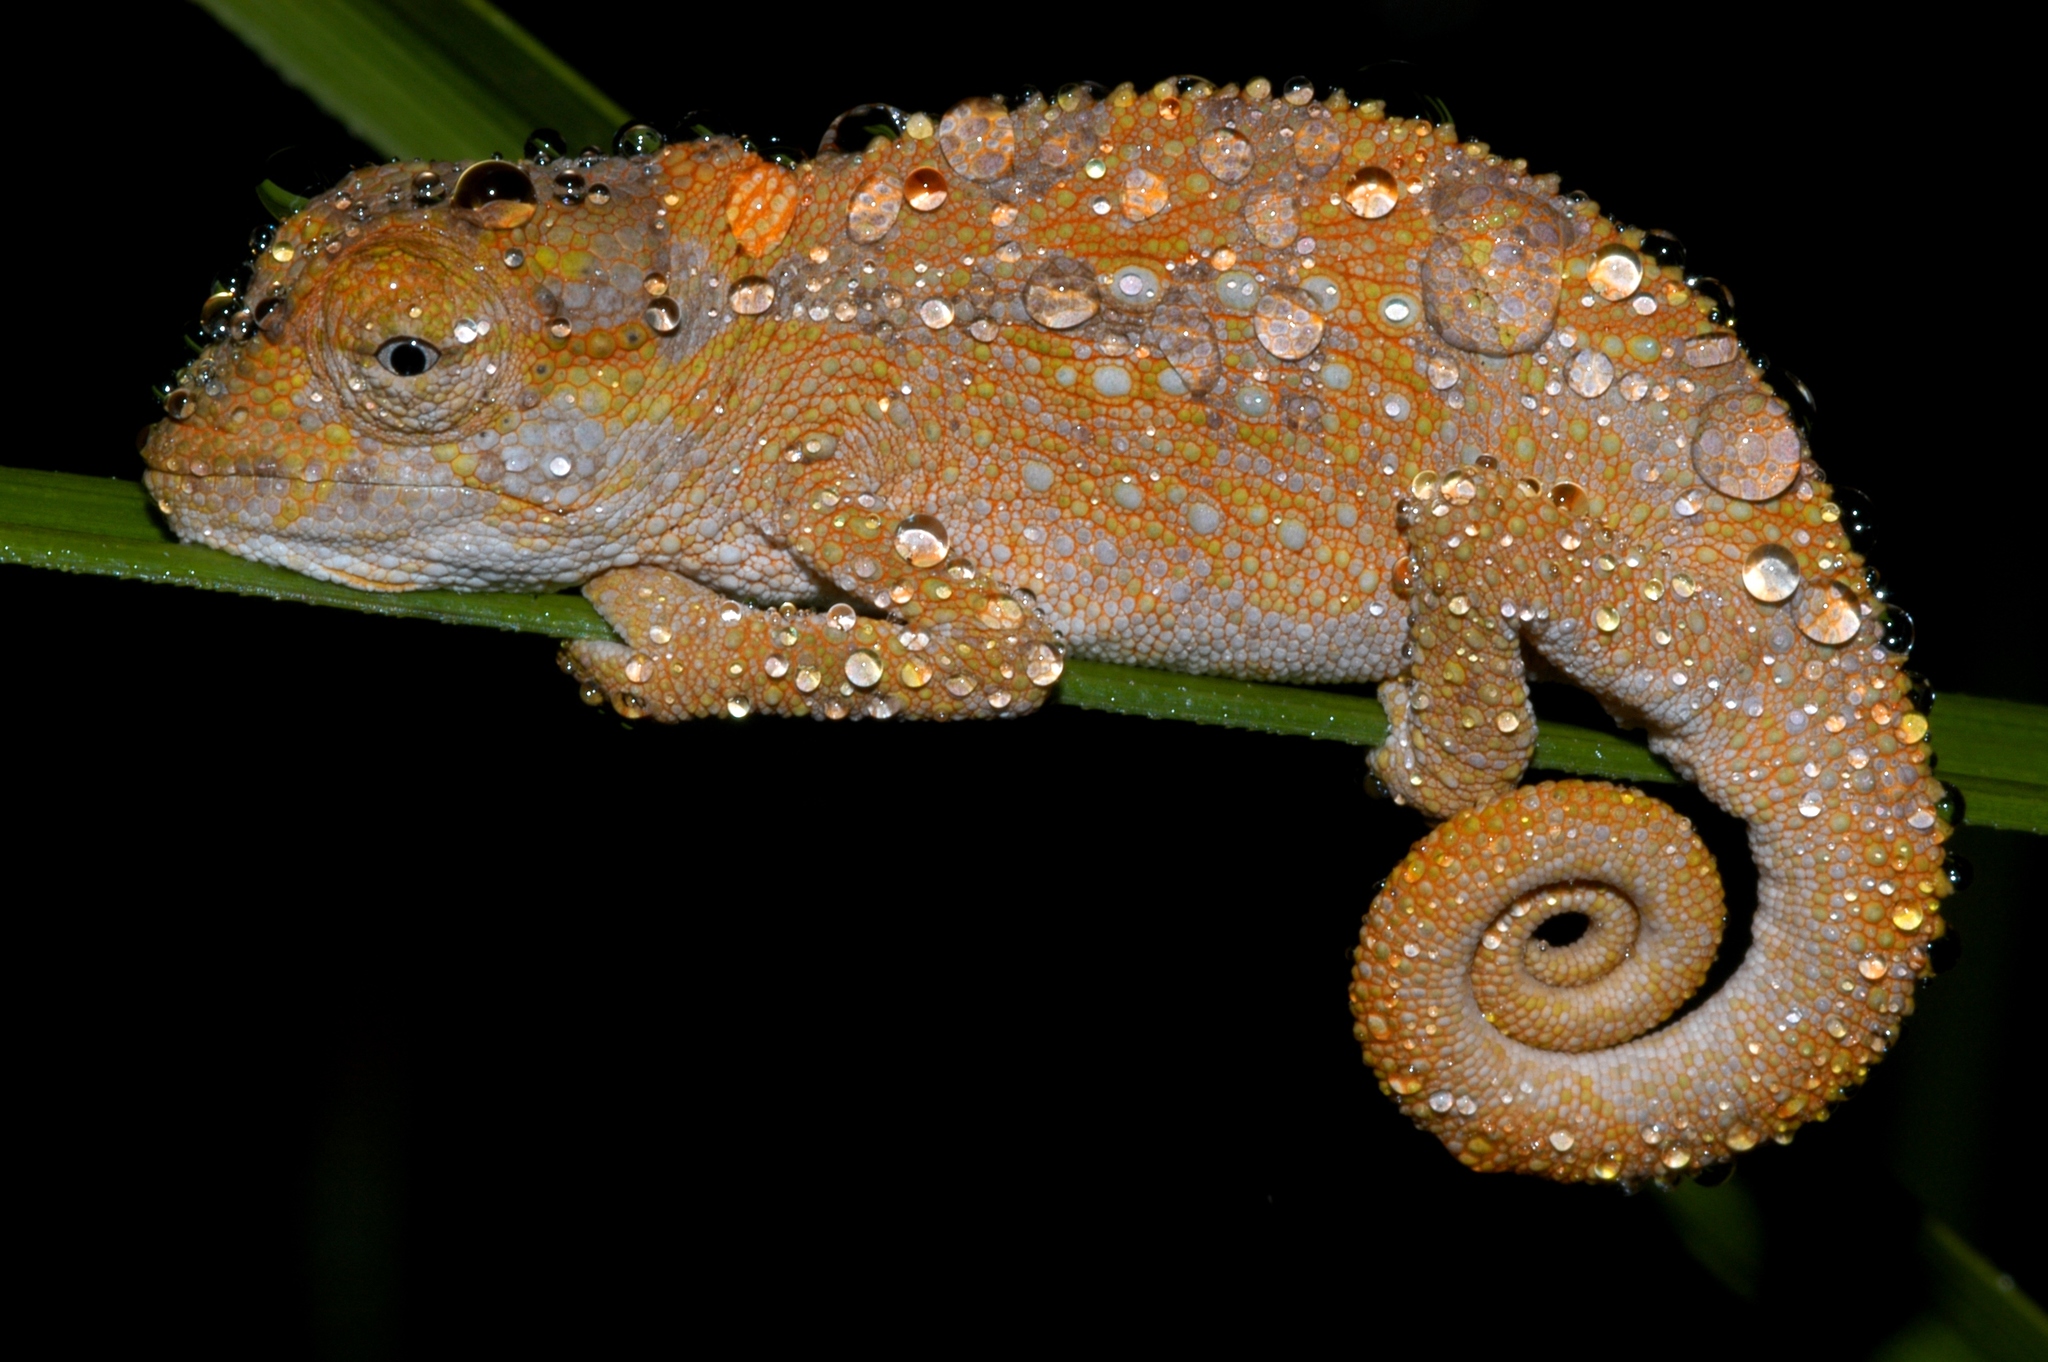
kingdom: Animalia
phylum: Chordata
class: Squamata
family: Chamaeleonidae
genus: Bradypodion
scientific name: Bradypodion ventrale
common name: Eastern cape dwarf chameleon
